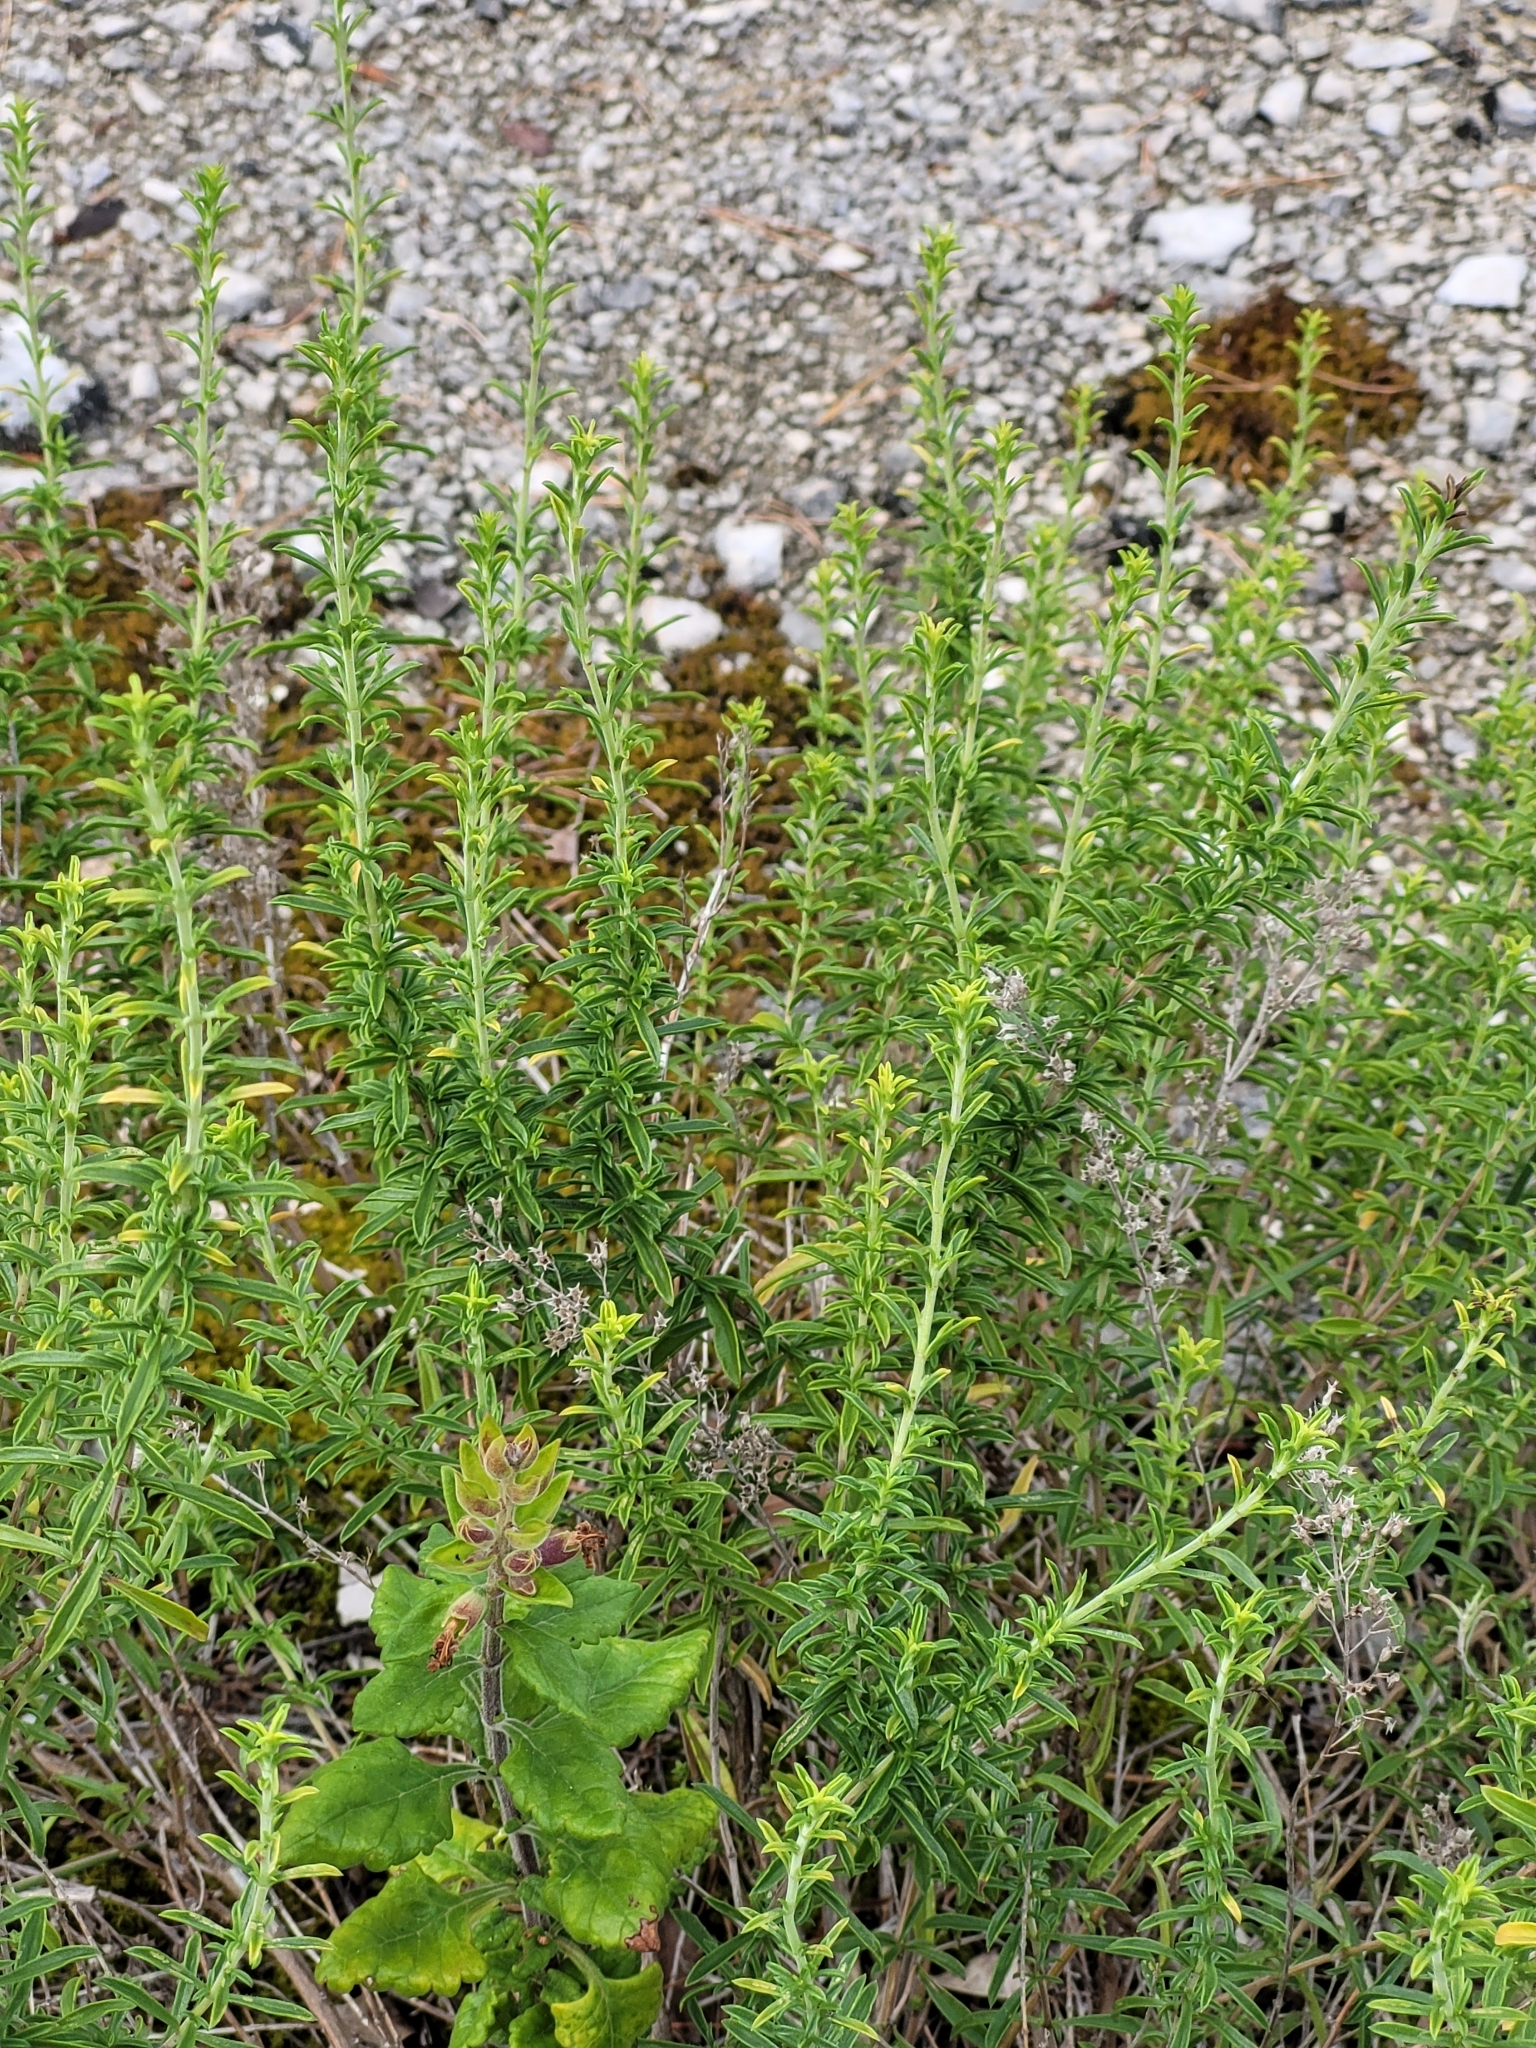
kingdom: Plantae
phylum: Tracheophyta
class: Magnoliopsida
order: Lamiales
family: Lamiaceae
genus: Satureja
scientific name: Satureja montana
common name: Winter savory
